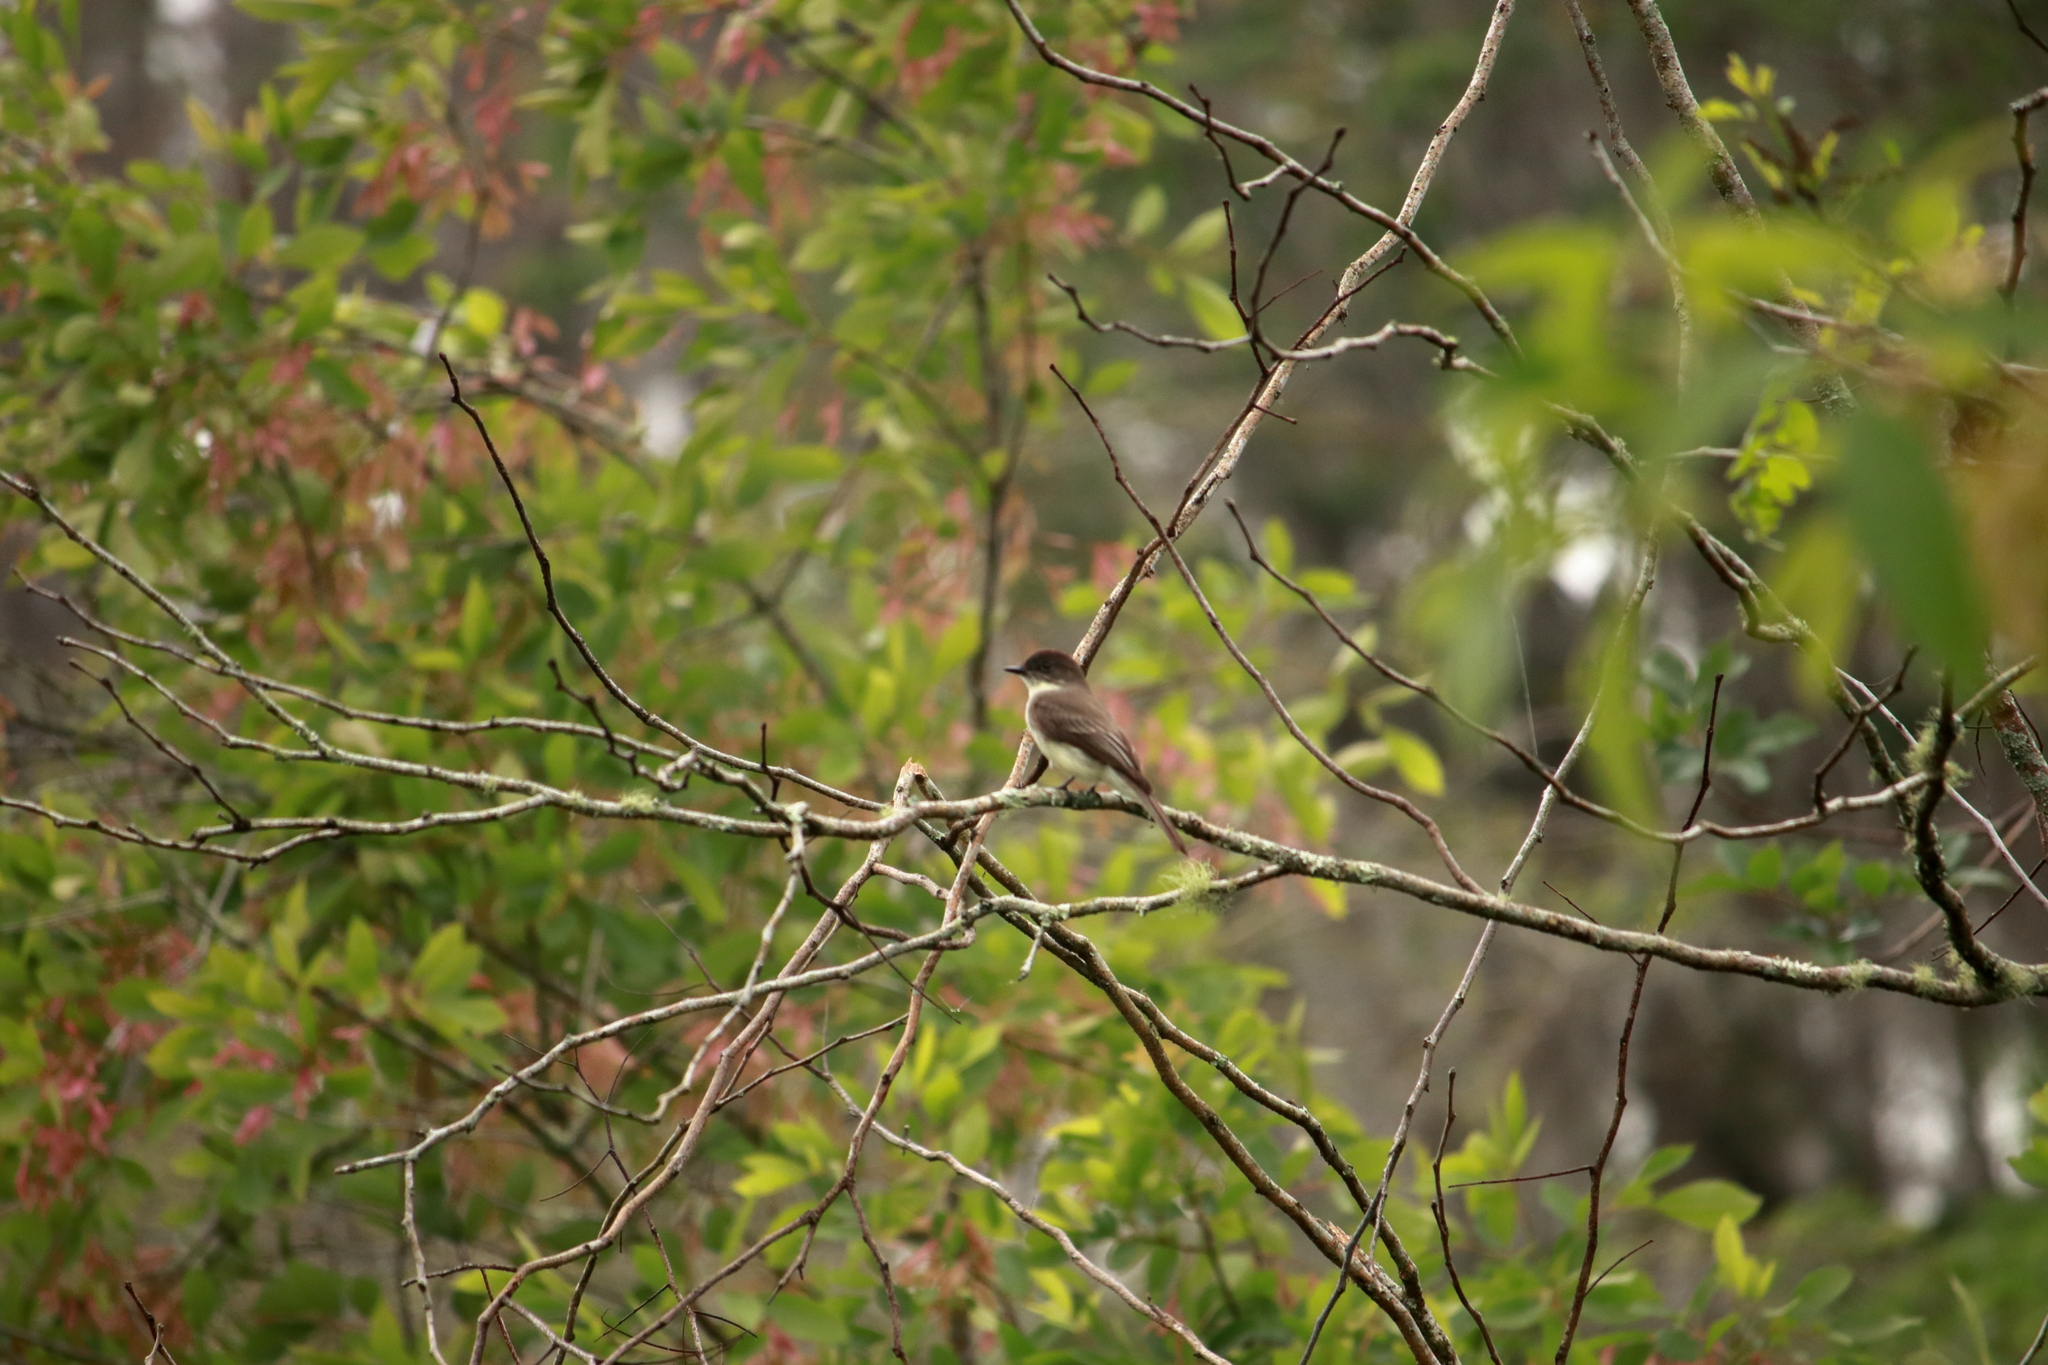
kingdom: Animalia
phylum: Chordata
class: Aves
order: Passeriformes
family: Tyrannidae
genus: Sayornis
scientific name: Sayornis phoebe
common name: Eastern phoebe
